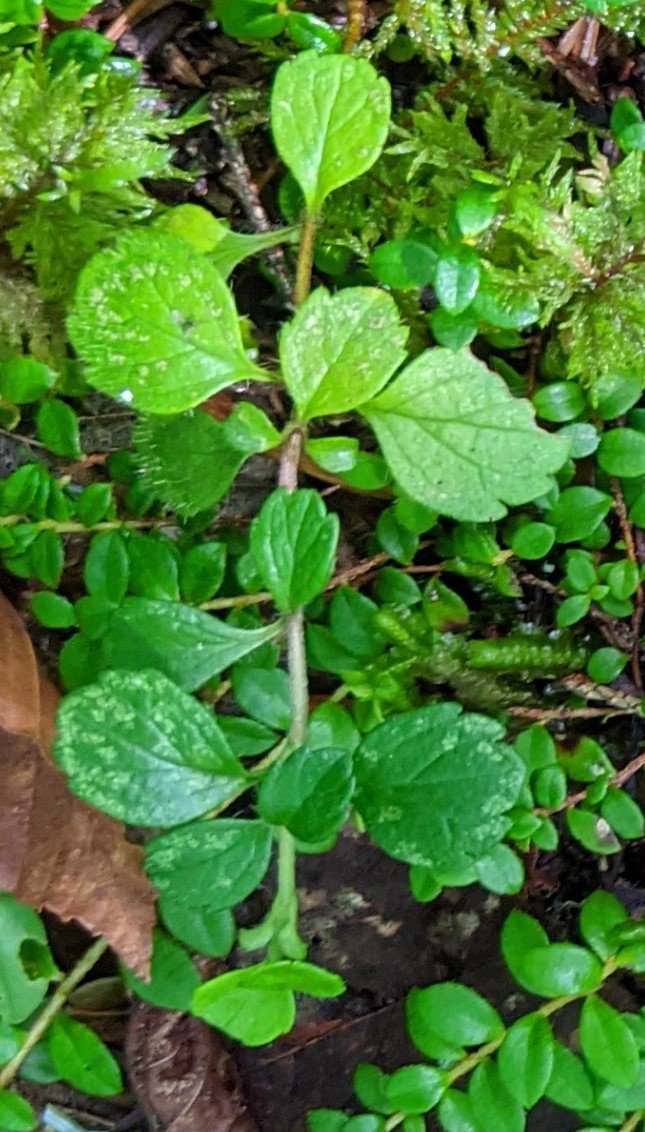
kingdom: Plantae
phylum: Tracheophyta
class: Magnoliopsida
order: Dipsacales
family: Caprifoliaceae
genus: Linnaea
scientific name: Linnaea borealis
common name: Twinflower
